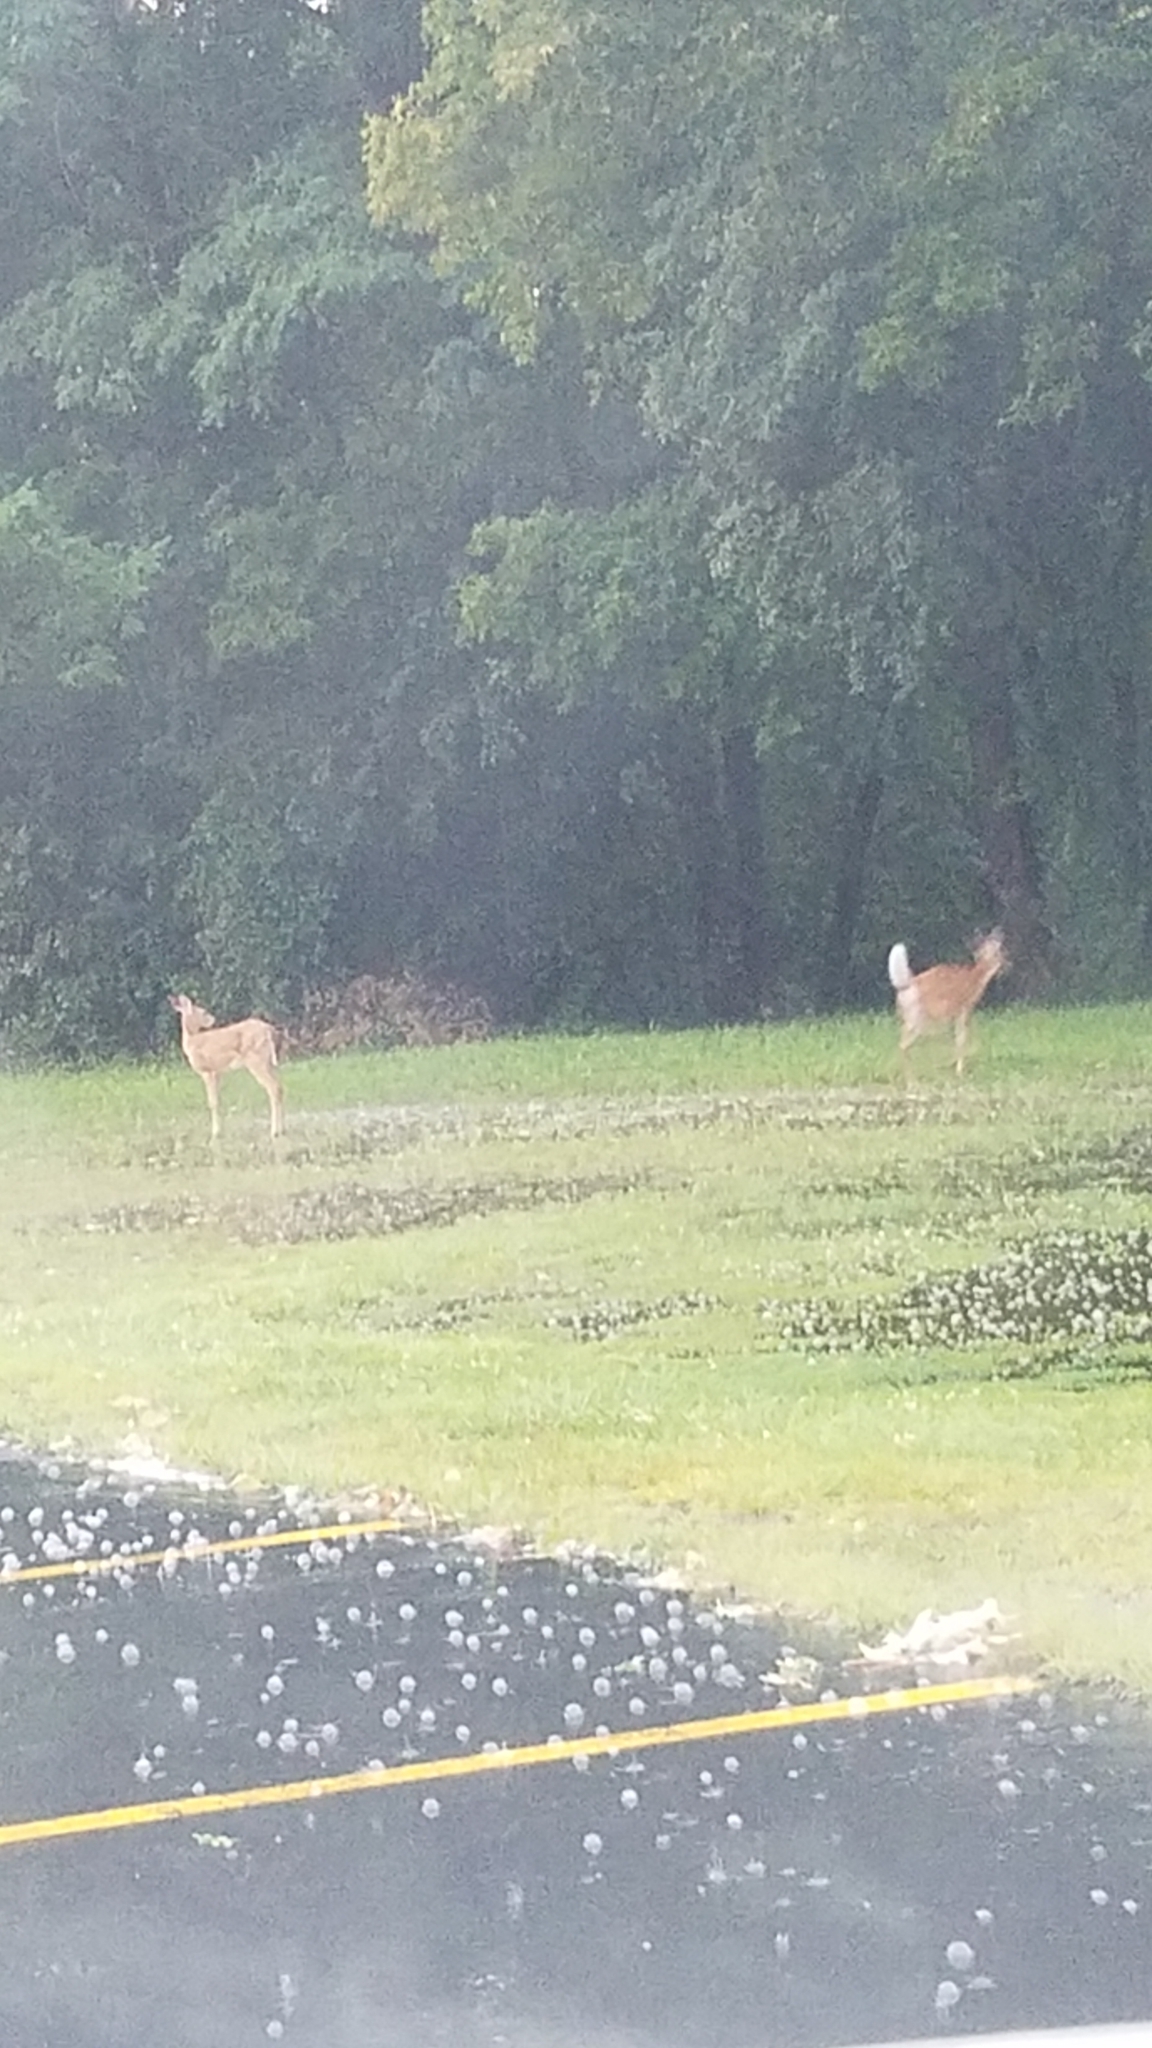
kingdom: Animalia
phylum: Chordata
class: Mammalia
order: Artiodactyla
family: Cervidae
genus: Odocoileus
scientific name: Odocoileus virginianus
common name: White-tailed deer
